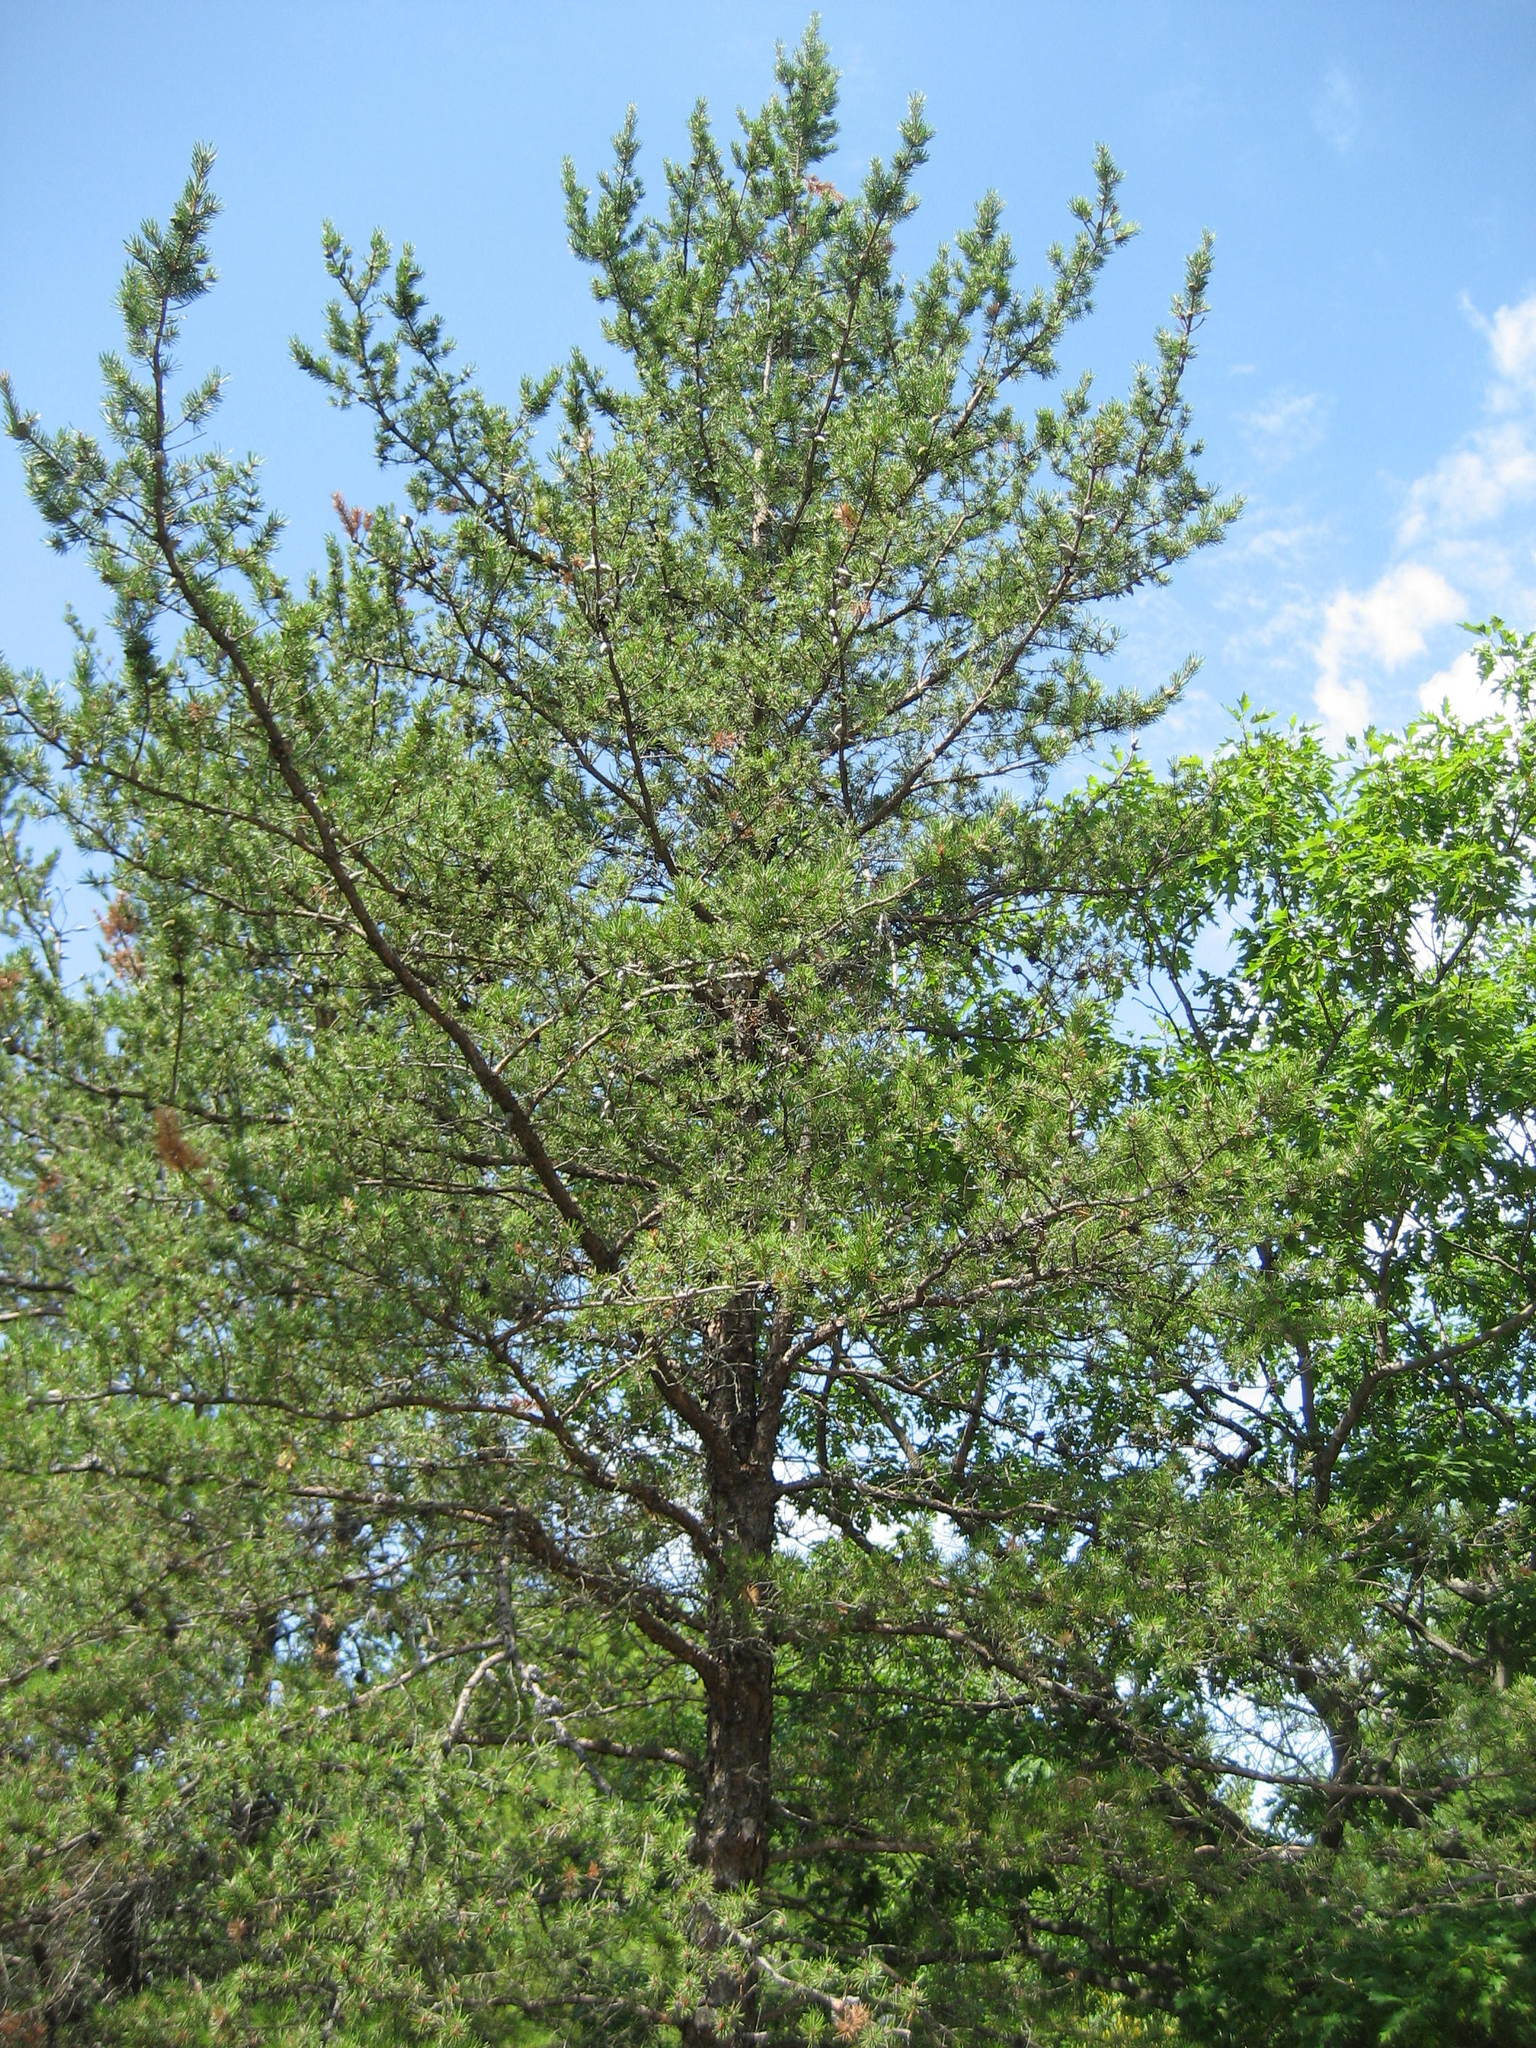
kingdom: Plantae
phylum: Tracheophyta
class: Pinopsida
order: Pinales
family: Pinaceae
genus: Pinus
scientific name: Pinus banksiana
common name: Jack pine
